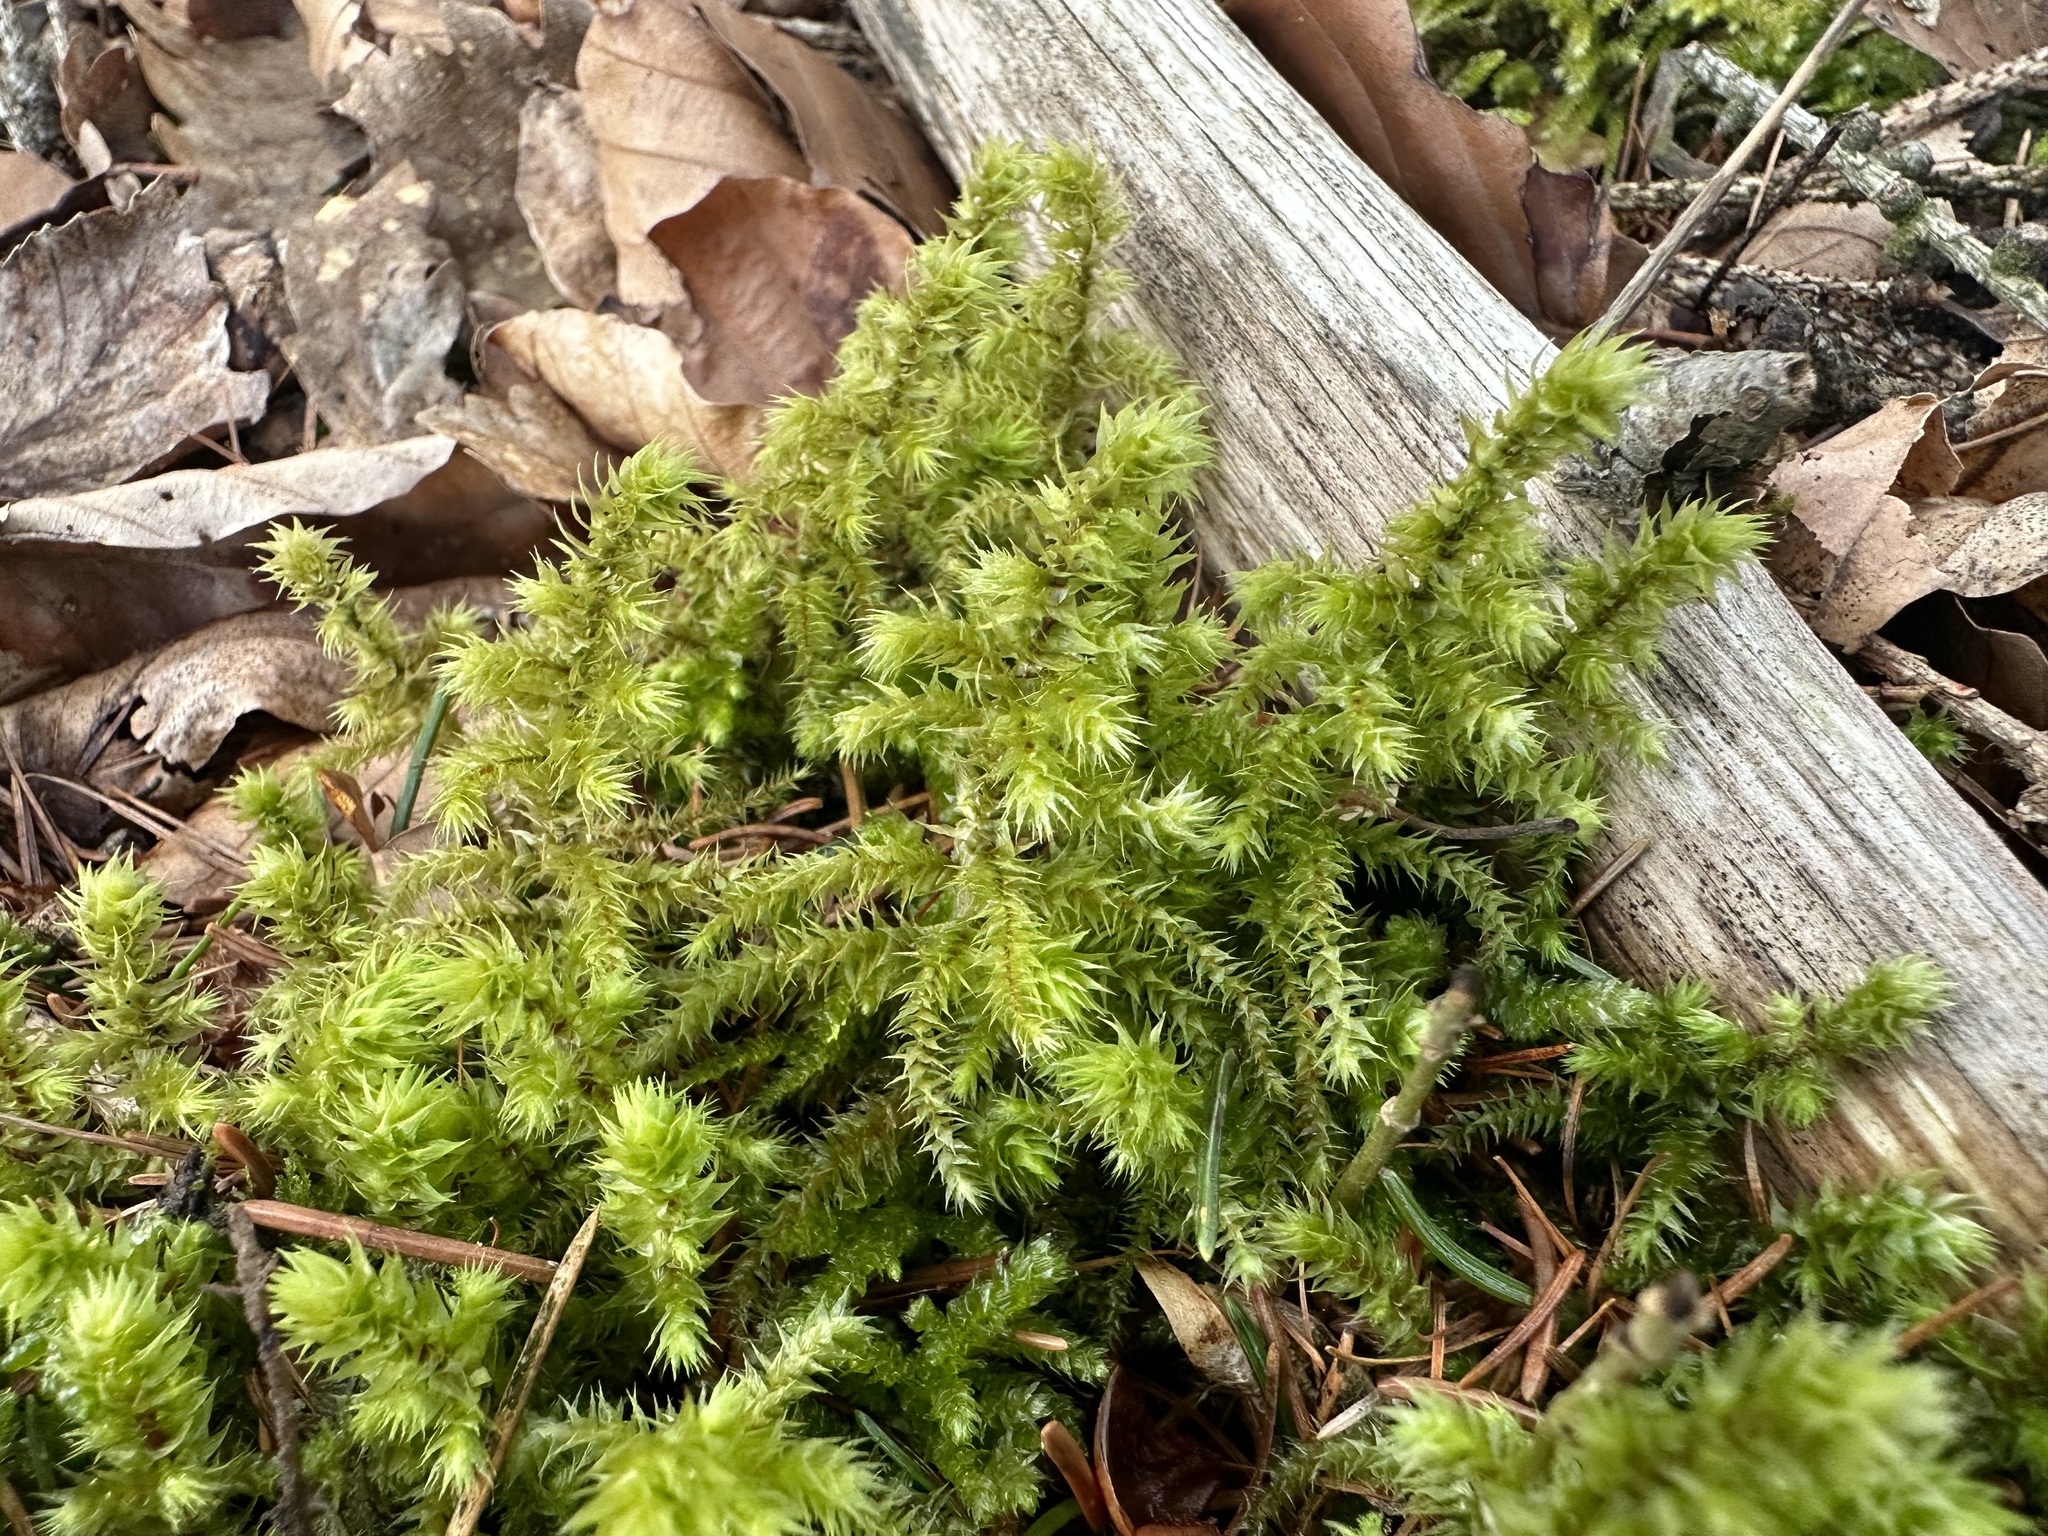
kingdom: Plantae
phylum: Bryophyta
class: Bryopsida
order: Hypnales
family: Hylocomiaceae
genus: Hylocomiadelphus
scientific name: Hylocomiadelphus triquetrus
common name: Rough goose neck moss
